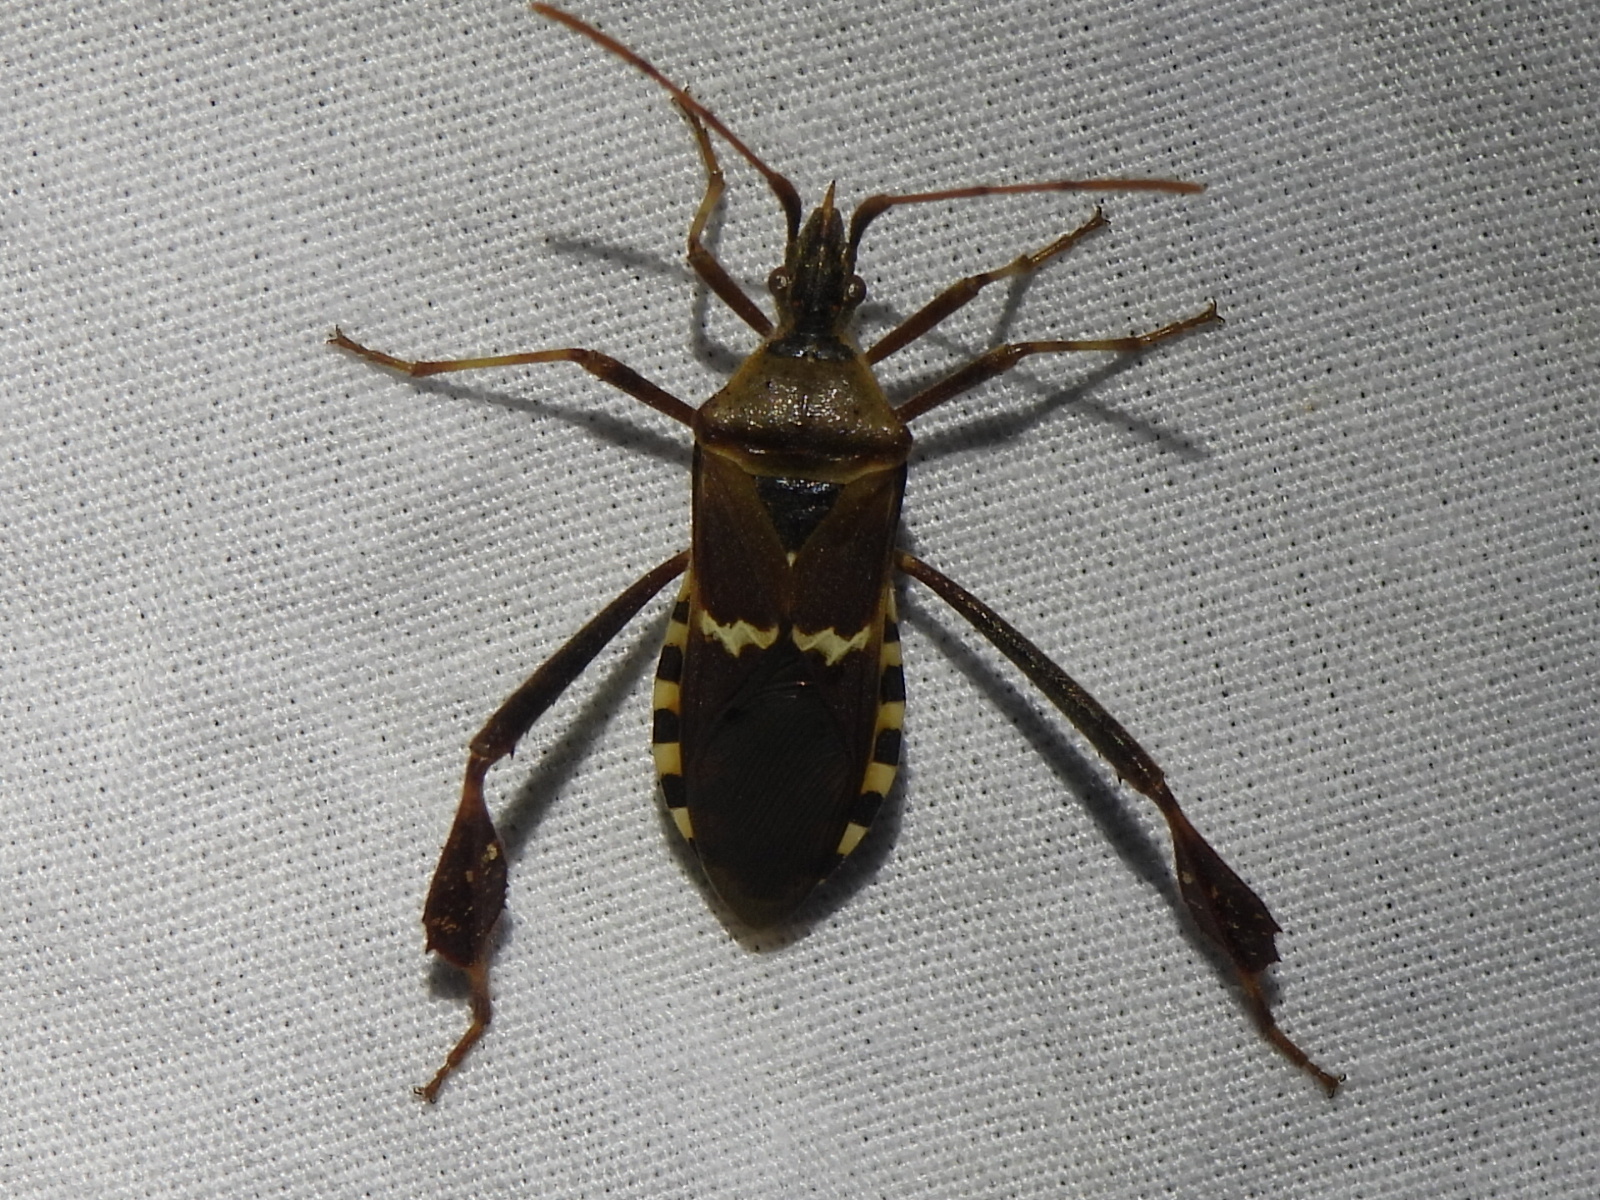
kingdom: Animalia
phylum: Arthropoda
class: Insecta
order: Hemiptera
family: Coreidae
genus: Leptoglossus
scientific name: Leptoglossus clypealis
